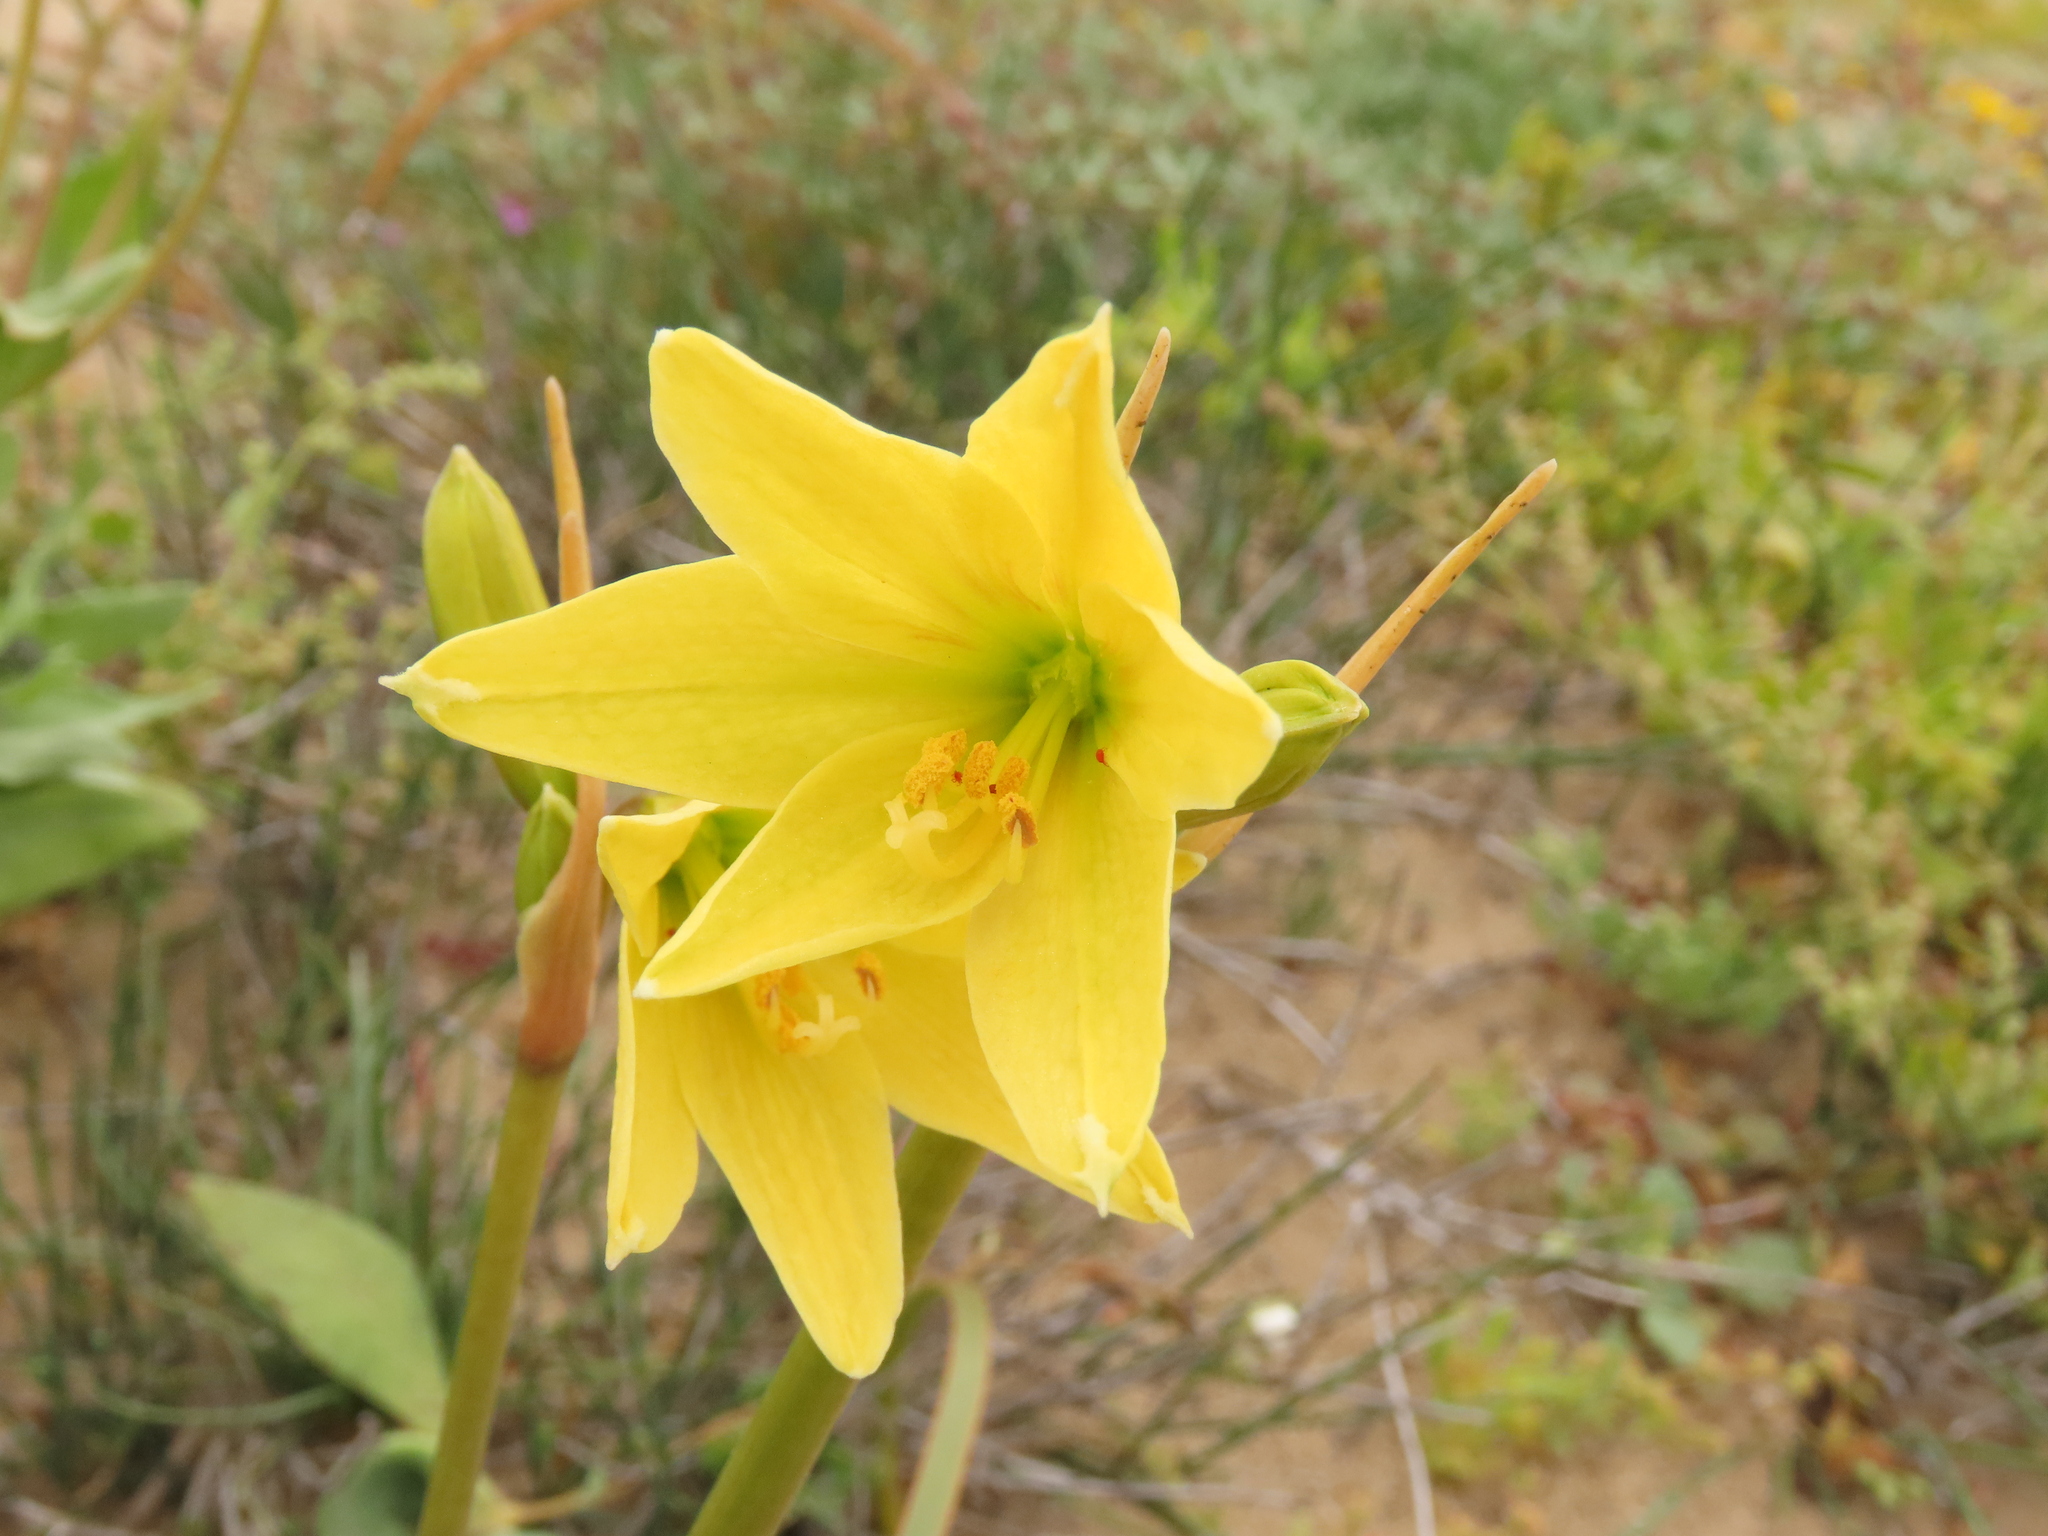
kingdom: Plantae
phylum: Tracheophyta
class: Liliopsida
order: Asparagales
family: Amaryllidaceae
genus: Zephyranthes
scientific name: Zephyranthes bagnoldii
